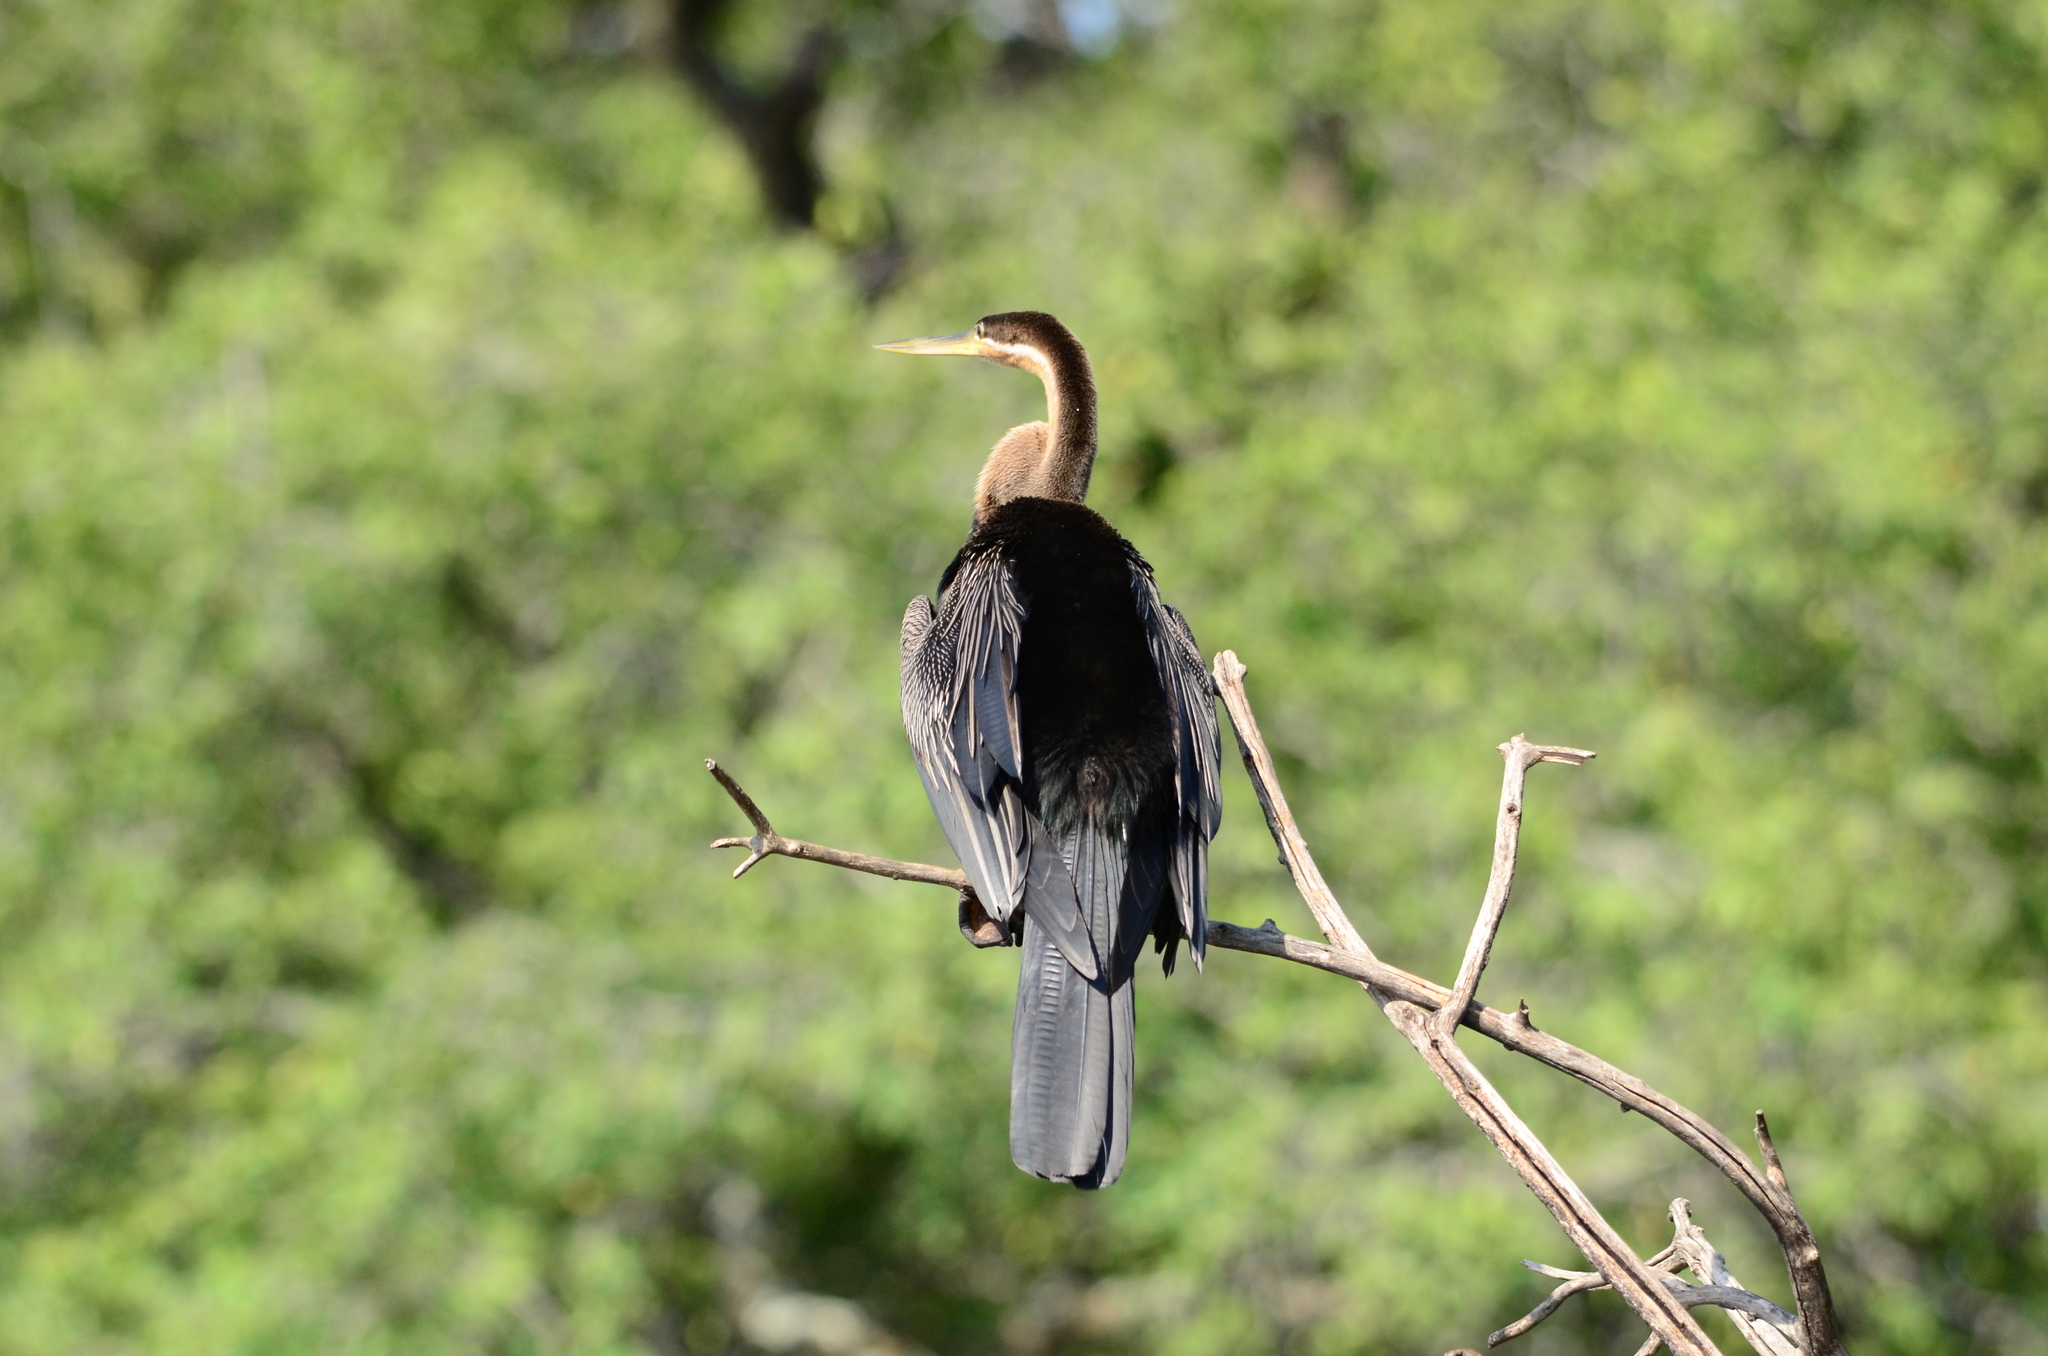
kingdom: Animalia
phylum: Chordata
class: Aves
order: Suliformes
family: Anhingidae
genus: Anhinga
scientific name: Anhinga rufa
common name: African darter
